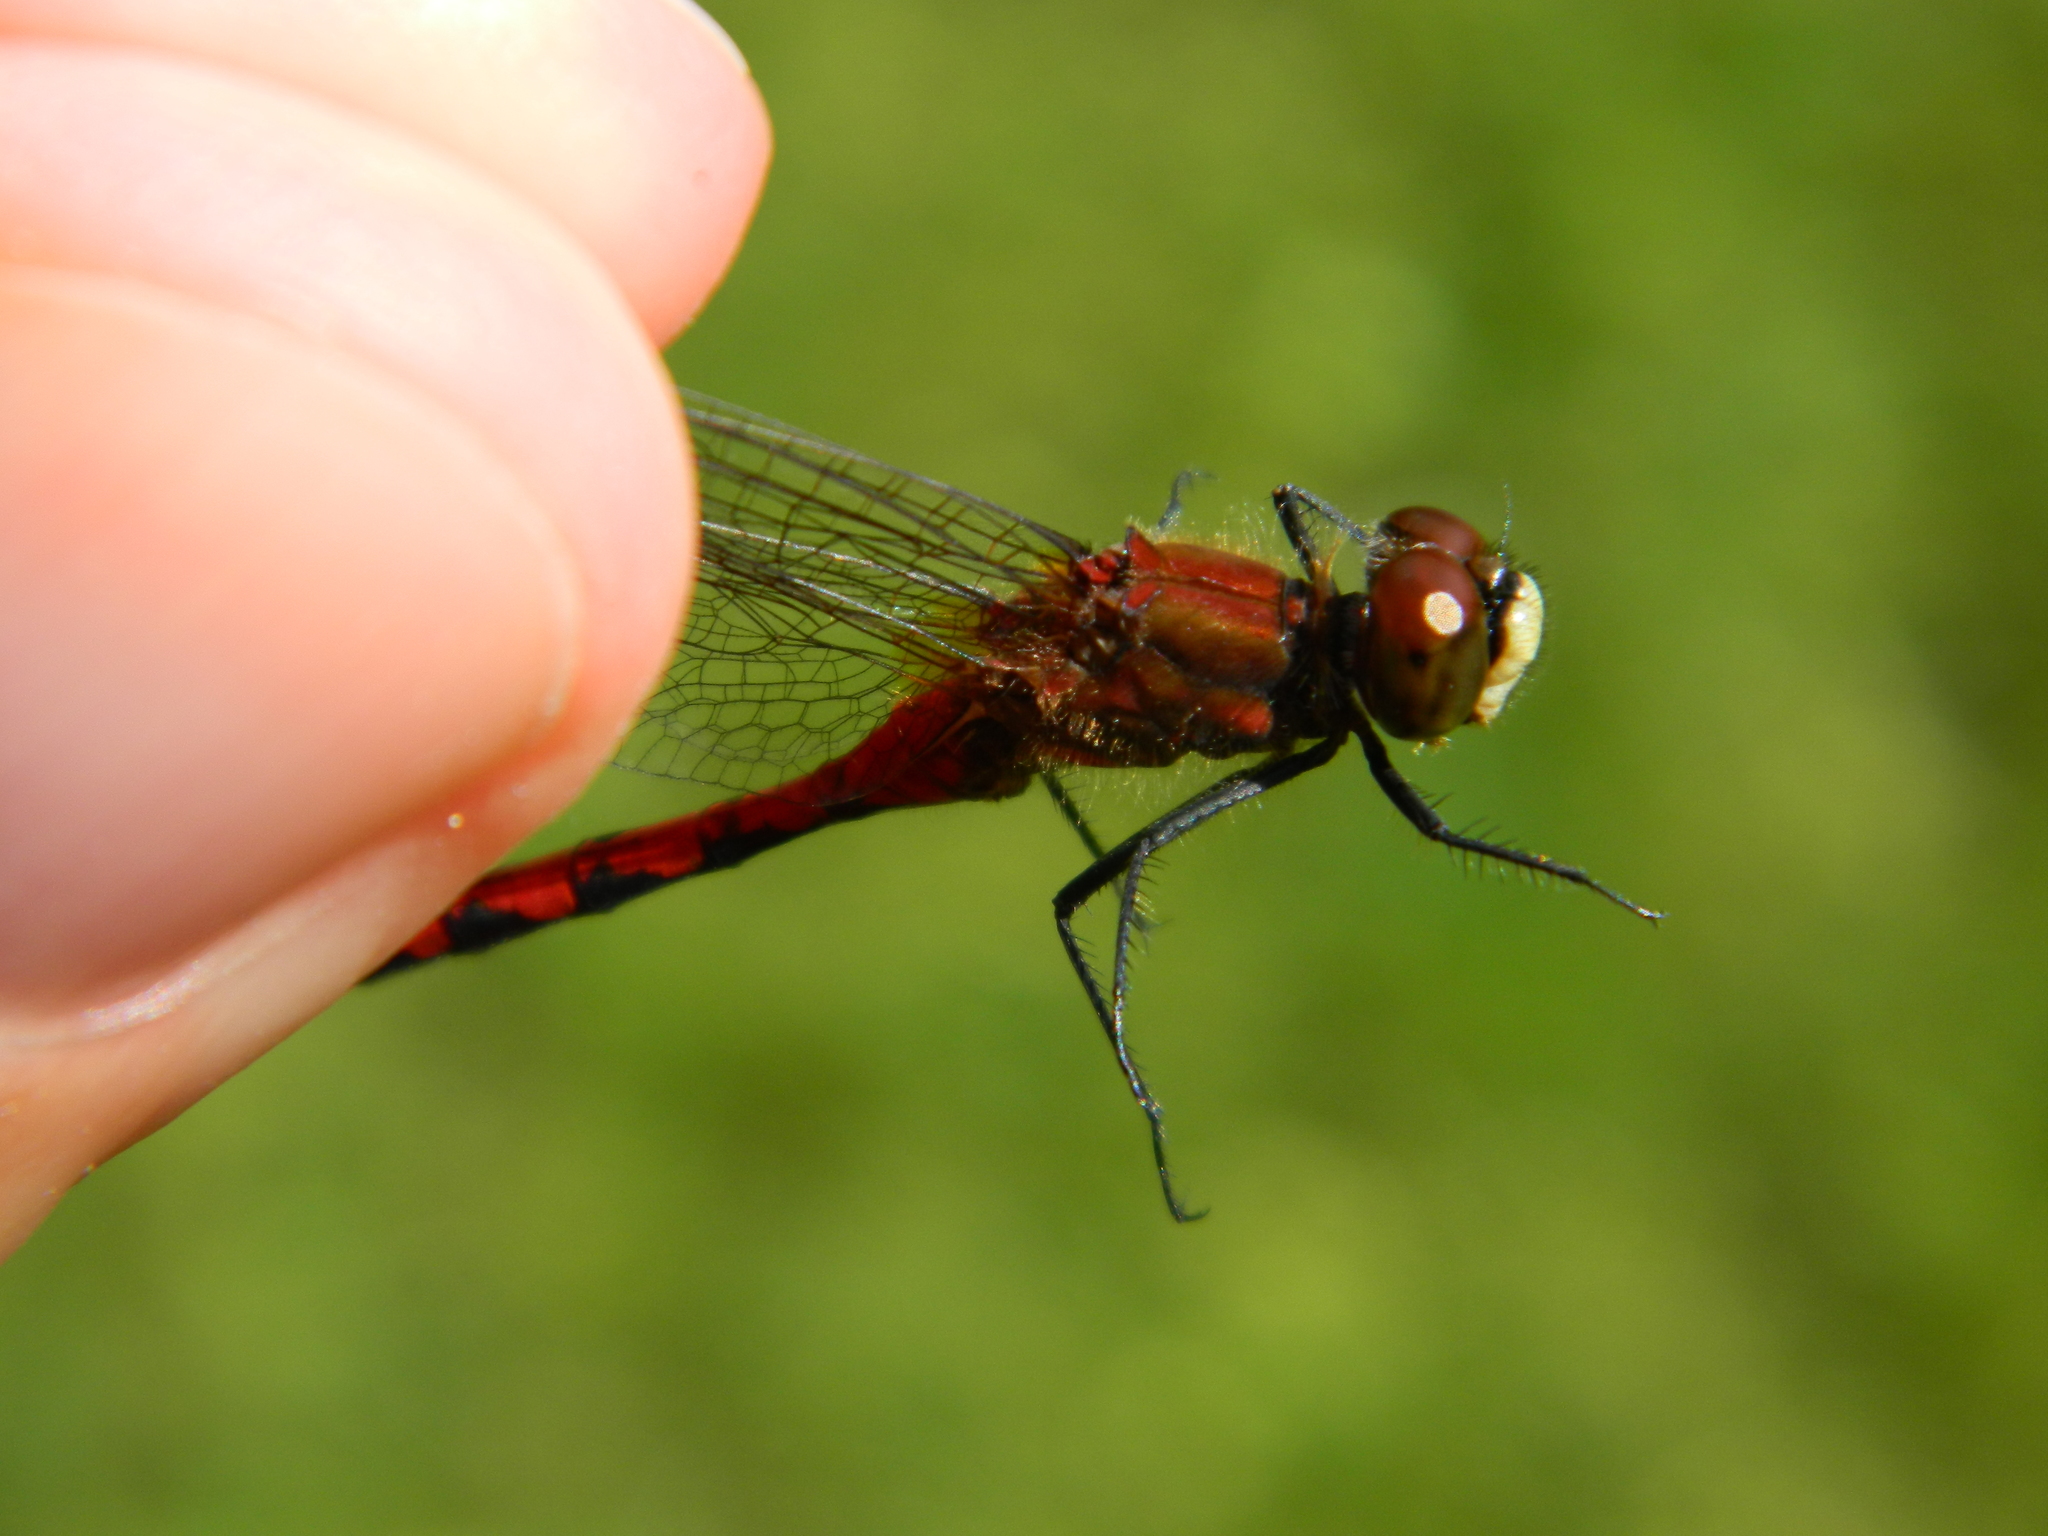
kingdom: Animalia
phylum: Arthropoda
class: Insecta
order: Odonata
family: Libellulidae
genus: Sympetrum
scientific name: Sympetrum obtrusum
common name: White-faced meadowhawk
